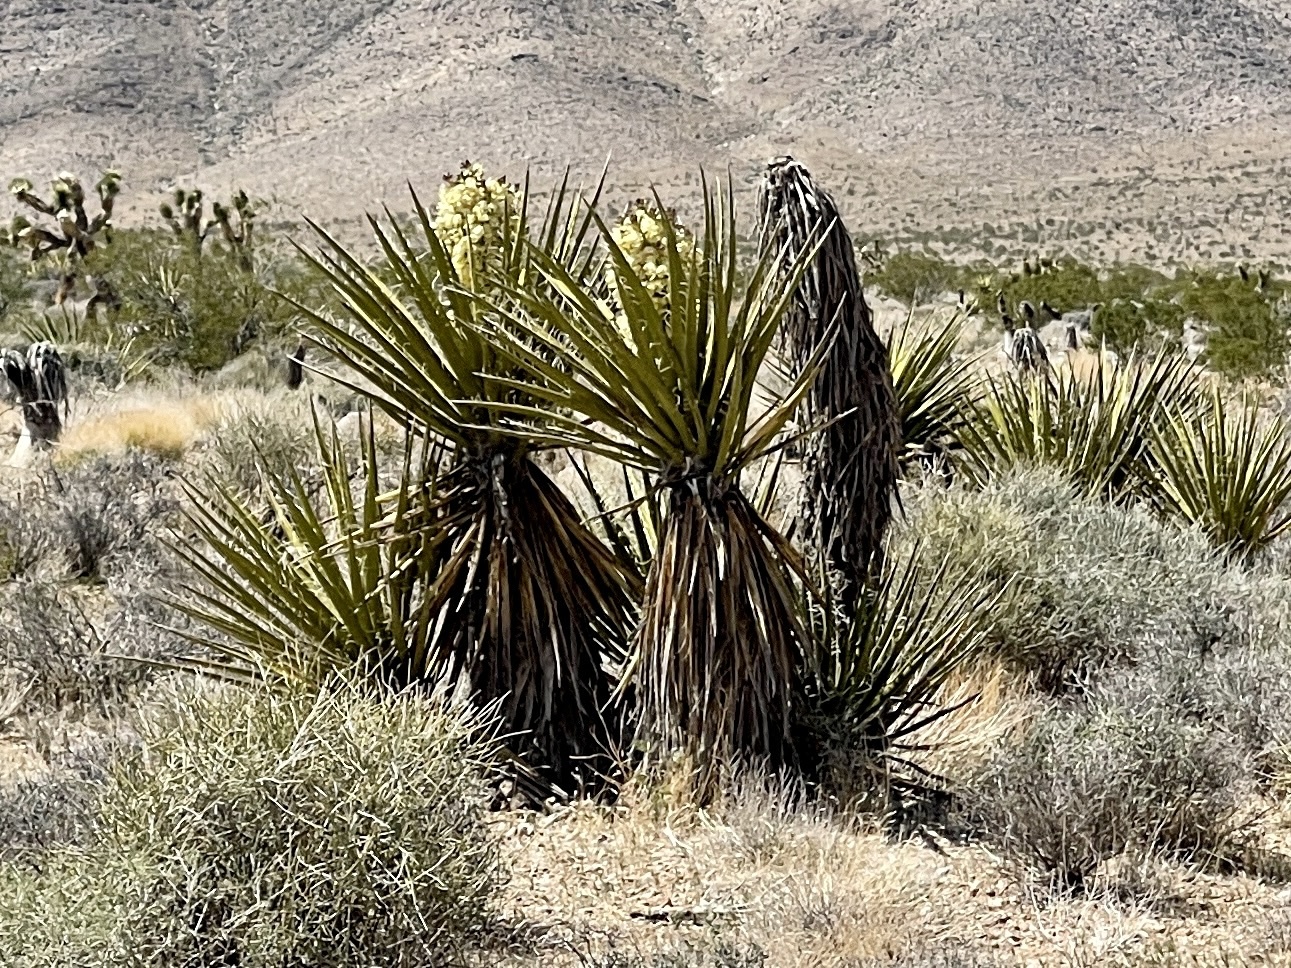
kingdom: Plantae
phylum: Tracheophyta
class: Liliopsida
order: Asparagales
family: Asparagaceae
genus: Yucca
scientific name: Yucca schidigera
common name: Mojave yucca
